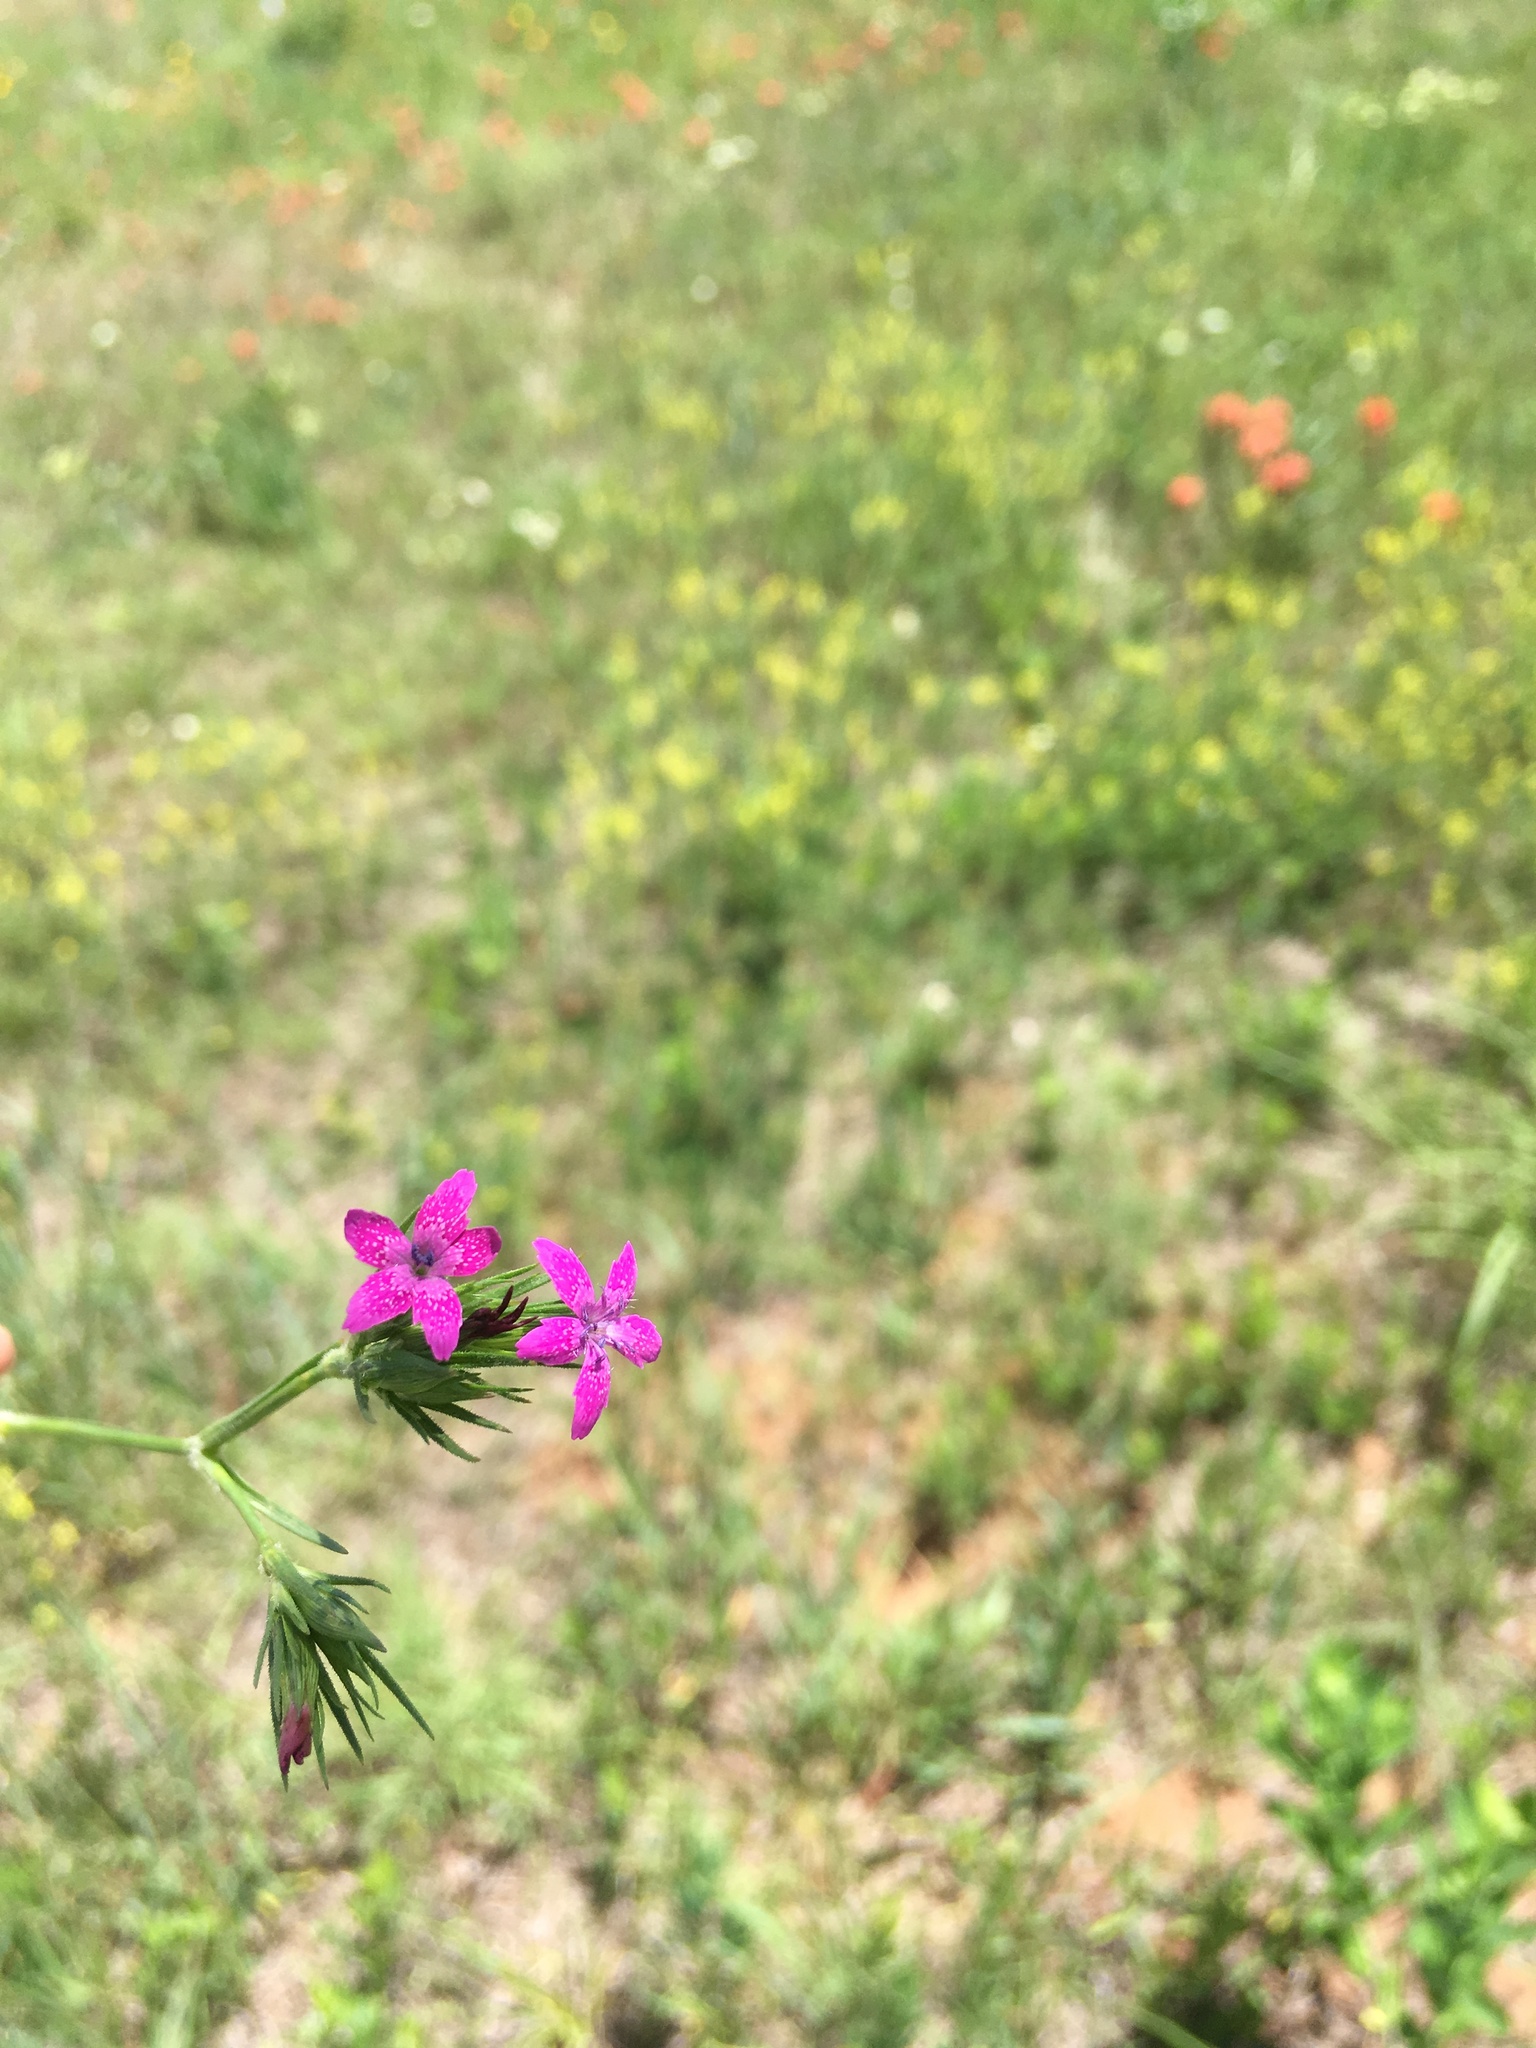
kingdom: Plantae
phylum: Tracheophyta
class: Magnoliopsida
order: Caryophyllales
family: Caryophyllaceae
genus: Dianthus
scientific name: Dianthus armeria
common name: Deptford pink
